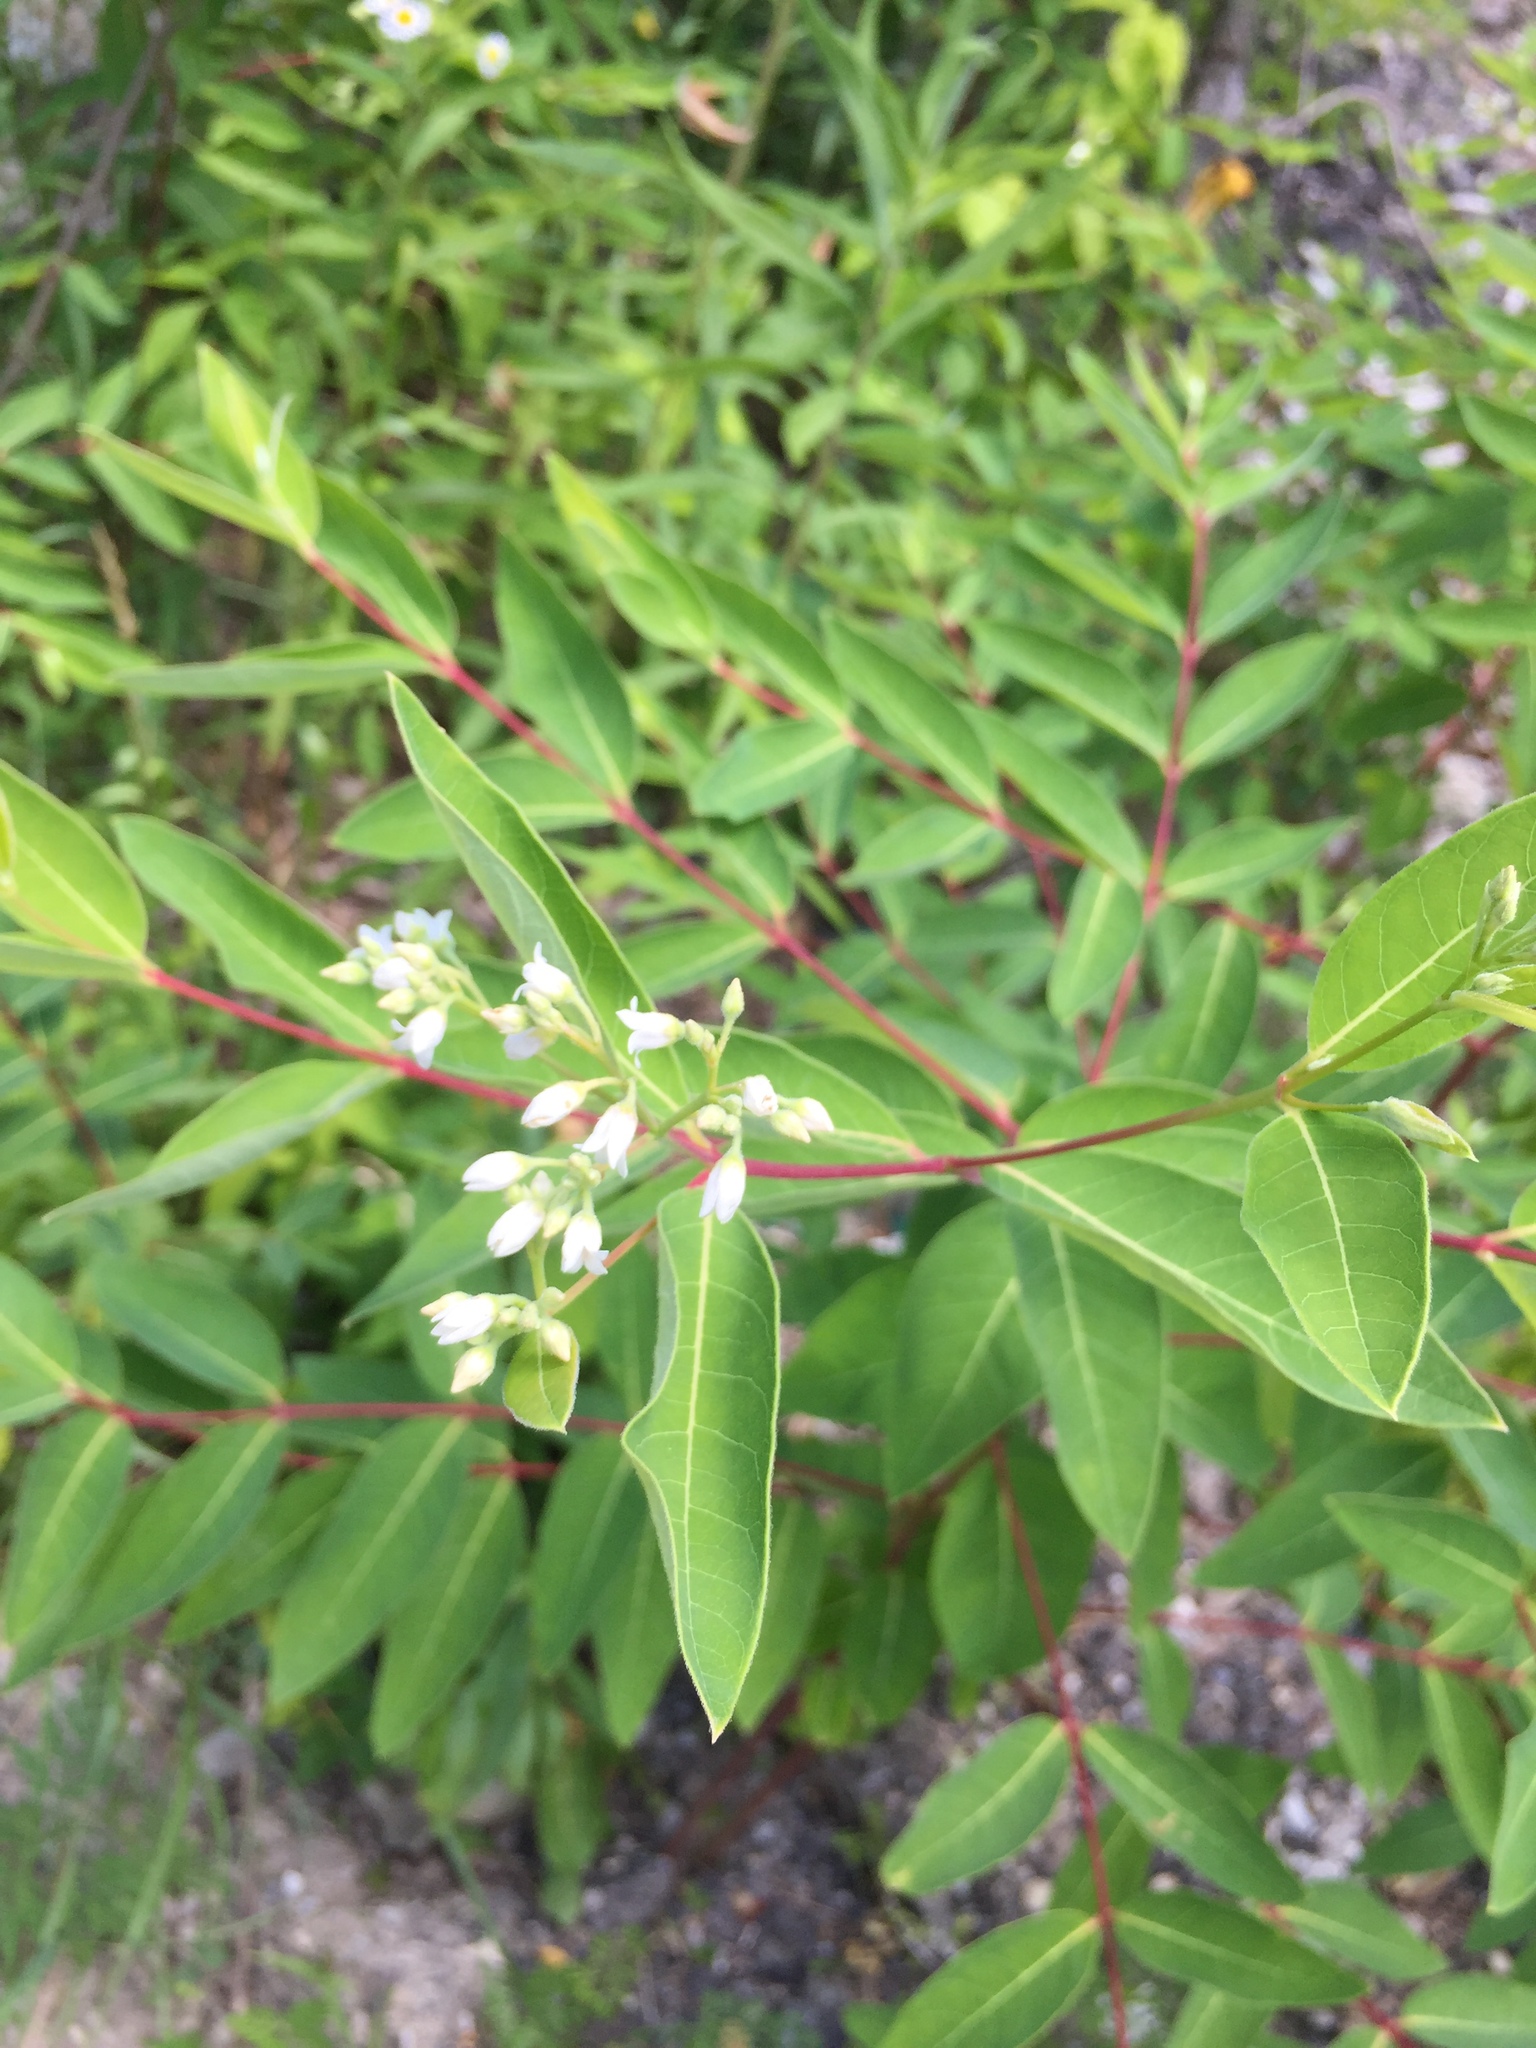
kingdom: Plantae
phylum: Tracheophyta
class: Magnoliopsida
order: Gentianales
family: Apocynaceae
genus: Apocynum
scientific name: Apocynum cannabinum
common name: Hemp dogbane
